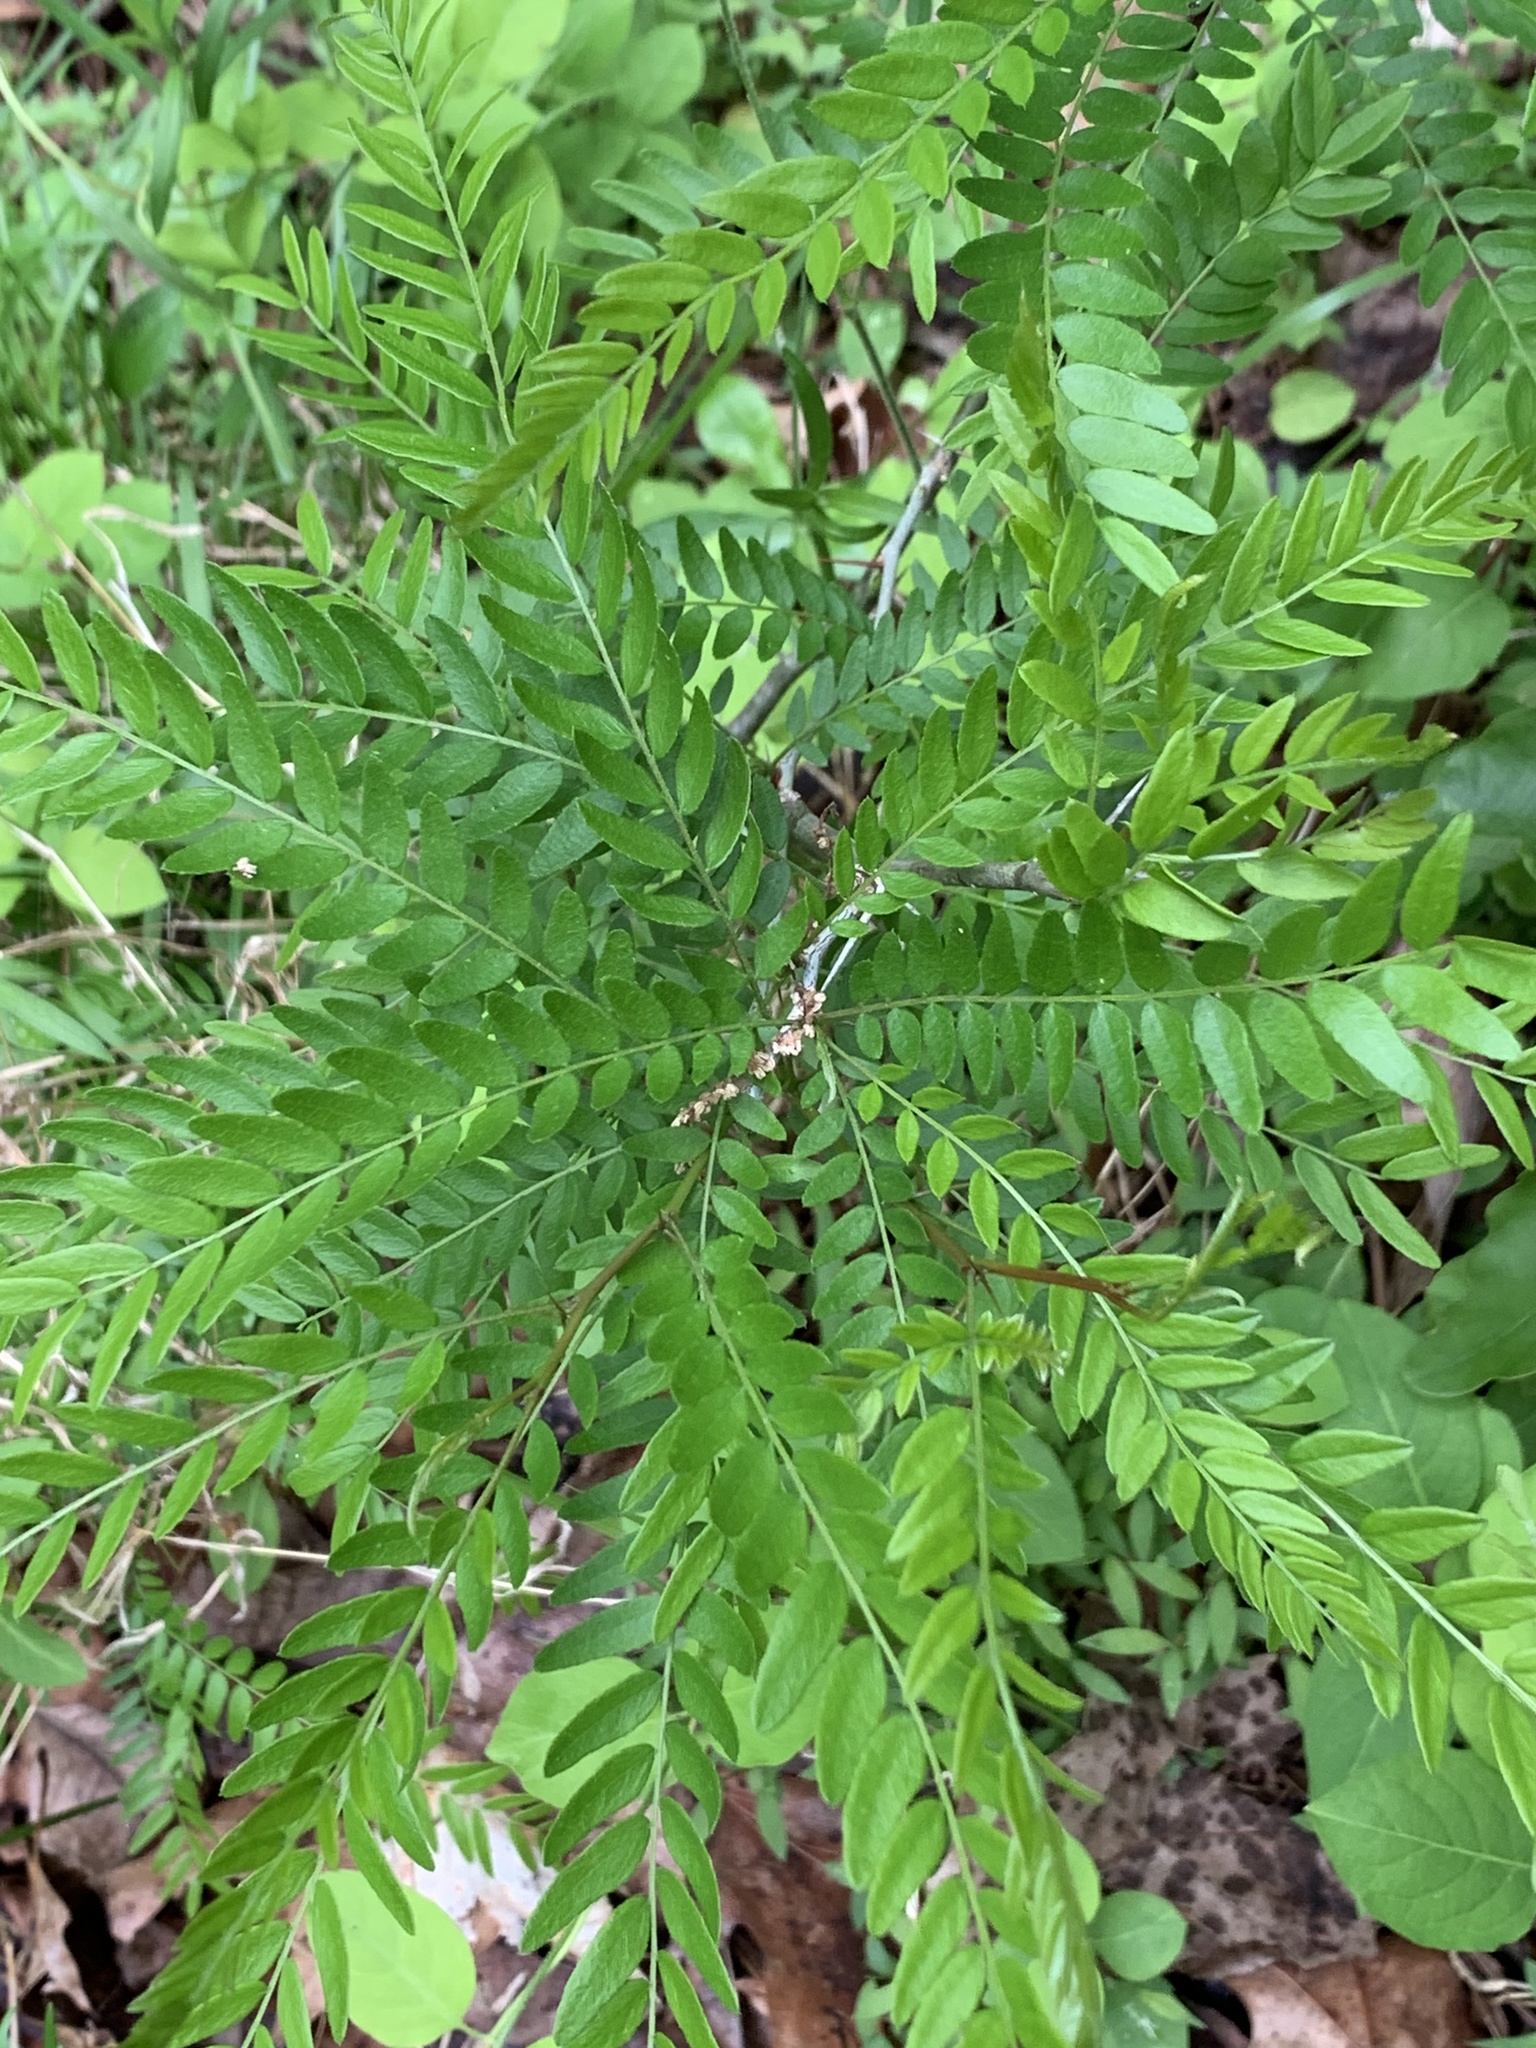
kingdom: Plantae
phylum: Tracheophyta
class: Magnoliopsida
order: Fabales
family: Fabaceae
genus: Gleditsia
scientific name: Gleditsia triacanthos
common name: Common honeylocust
